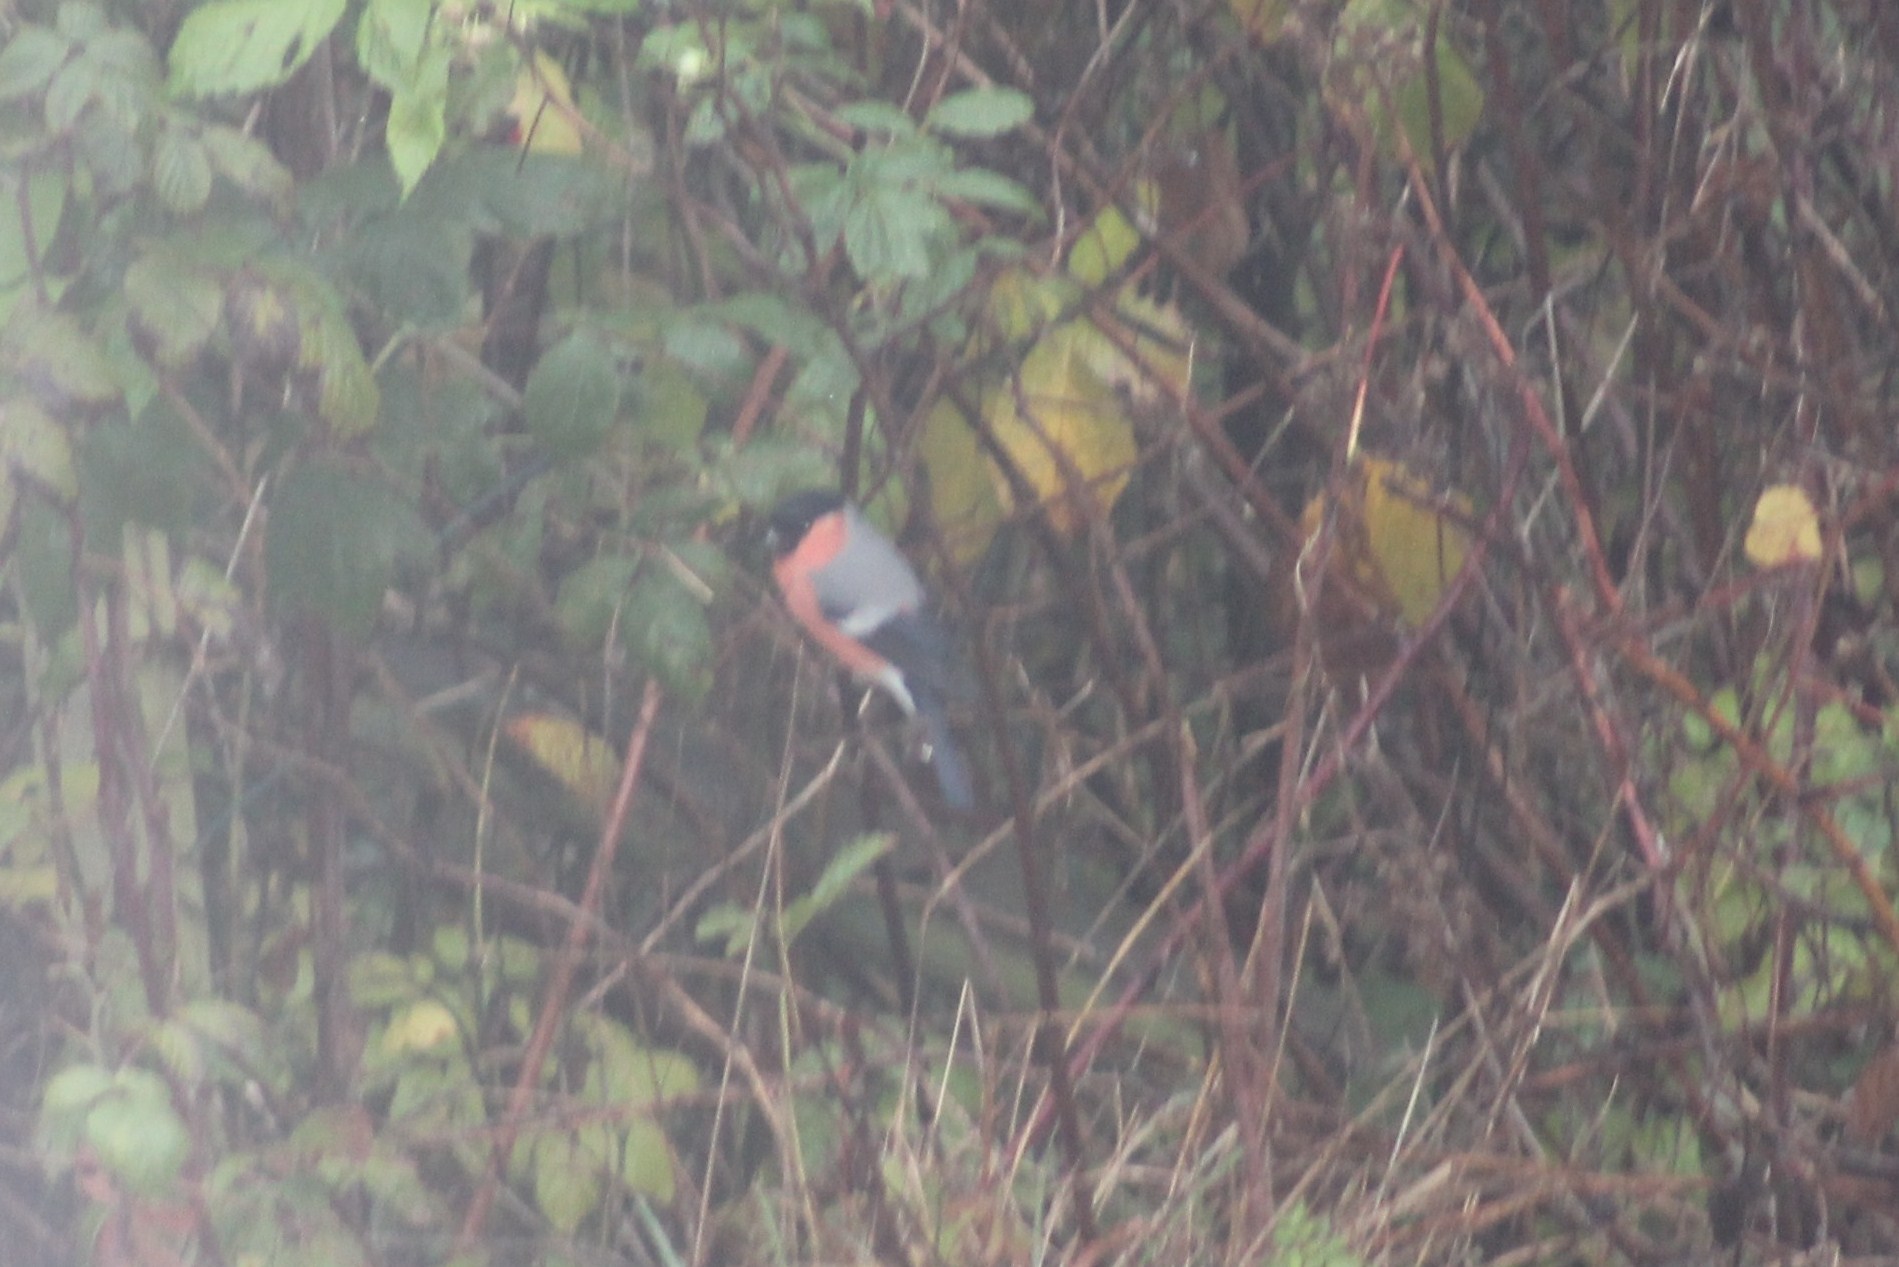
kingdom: Animalia
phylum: Chordata
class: Aves
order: Passeriformes
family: Fringillidae
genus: Pyrrhula
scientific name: Pyrrhula pyrrhula
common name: Eurasian bullfinch
